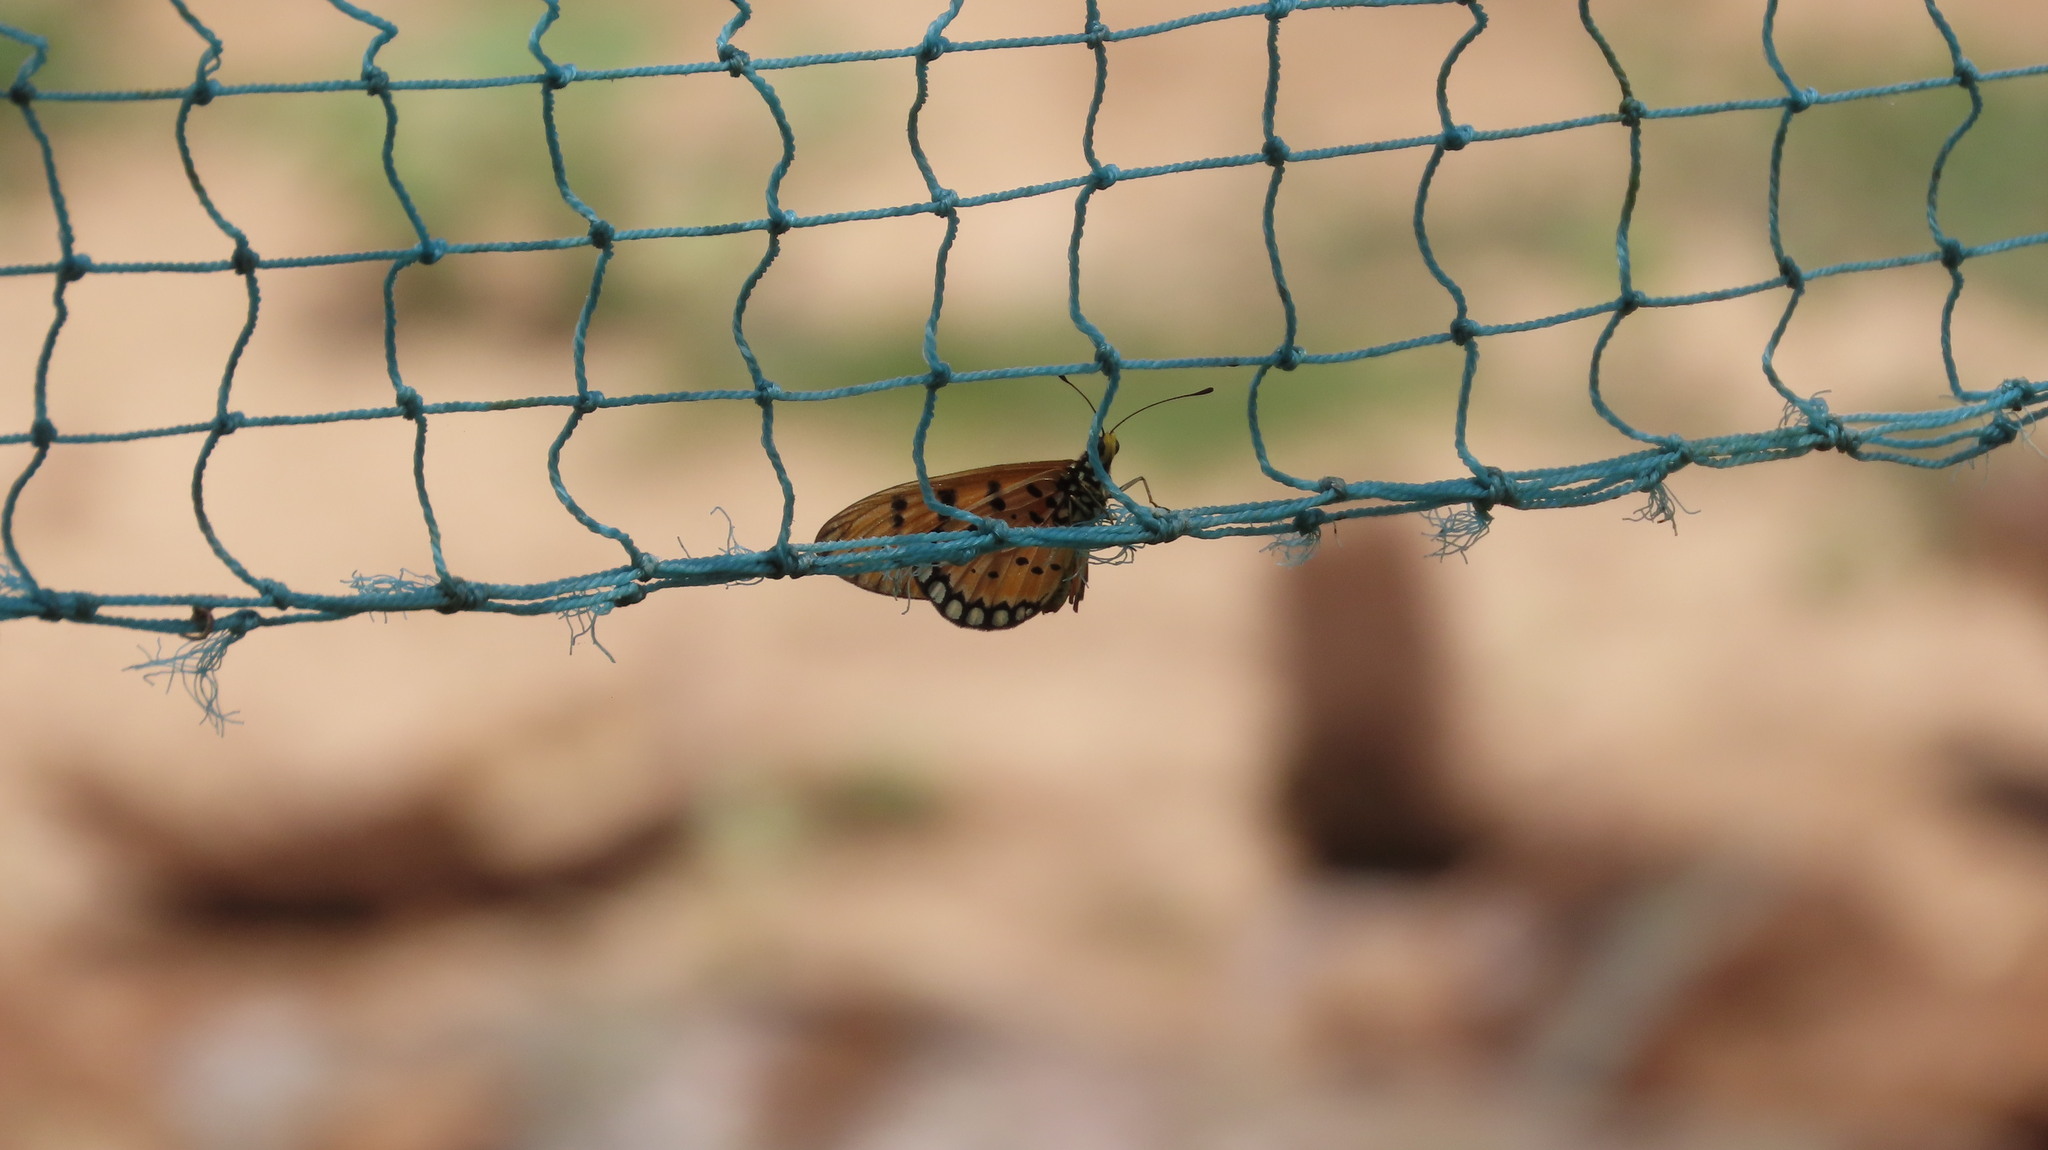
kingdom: Animalia
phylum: Arthropoda
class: Insecta
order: Lepidoptera
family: Nymphalidae
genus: Acraea
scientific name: Acraea terpsicore
